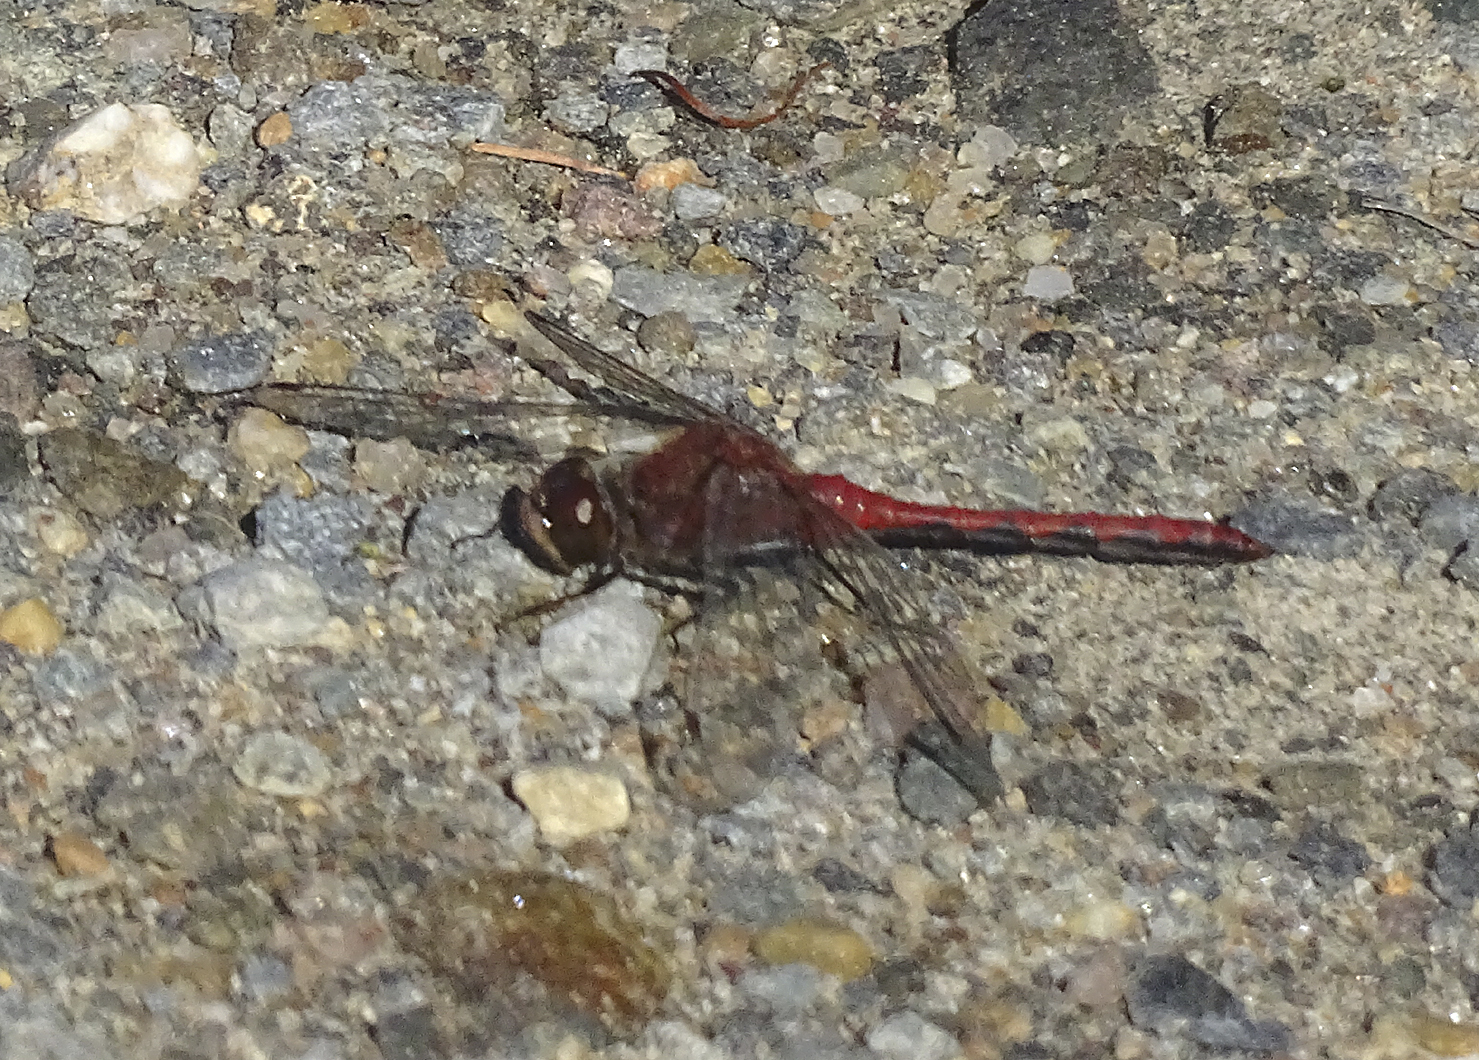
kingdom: Animalia
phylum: Arthropoda
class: Insecta
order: Odonata
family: Libellulidae
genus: Sympetrum
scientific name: Sympetrum internum
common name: Cherry-faced meadowhawk
